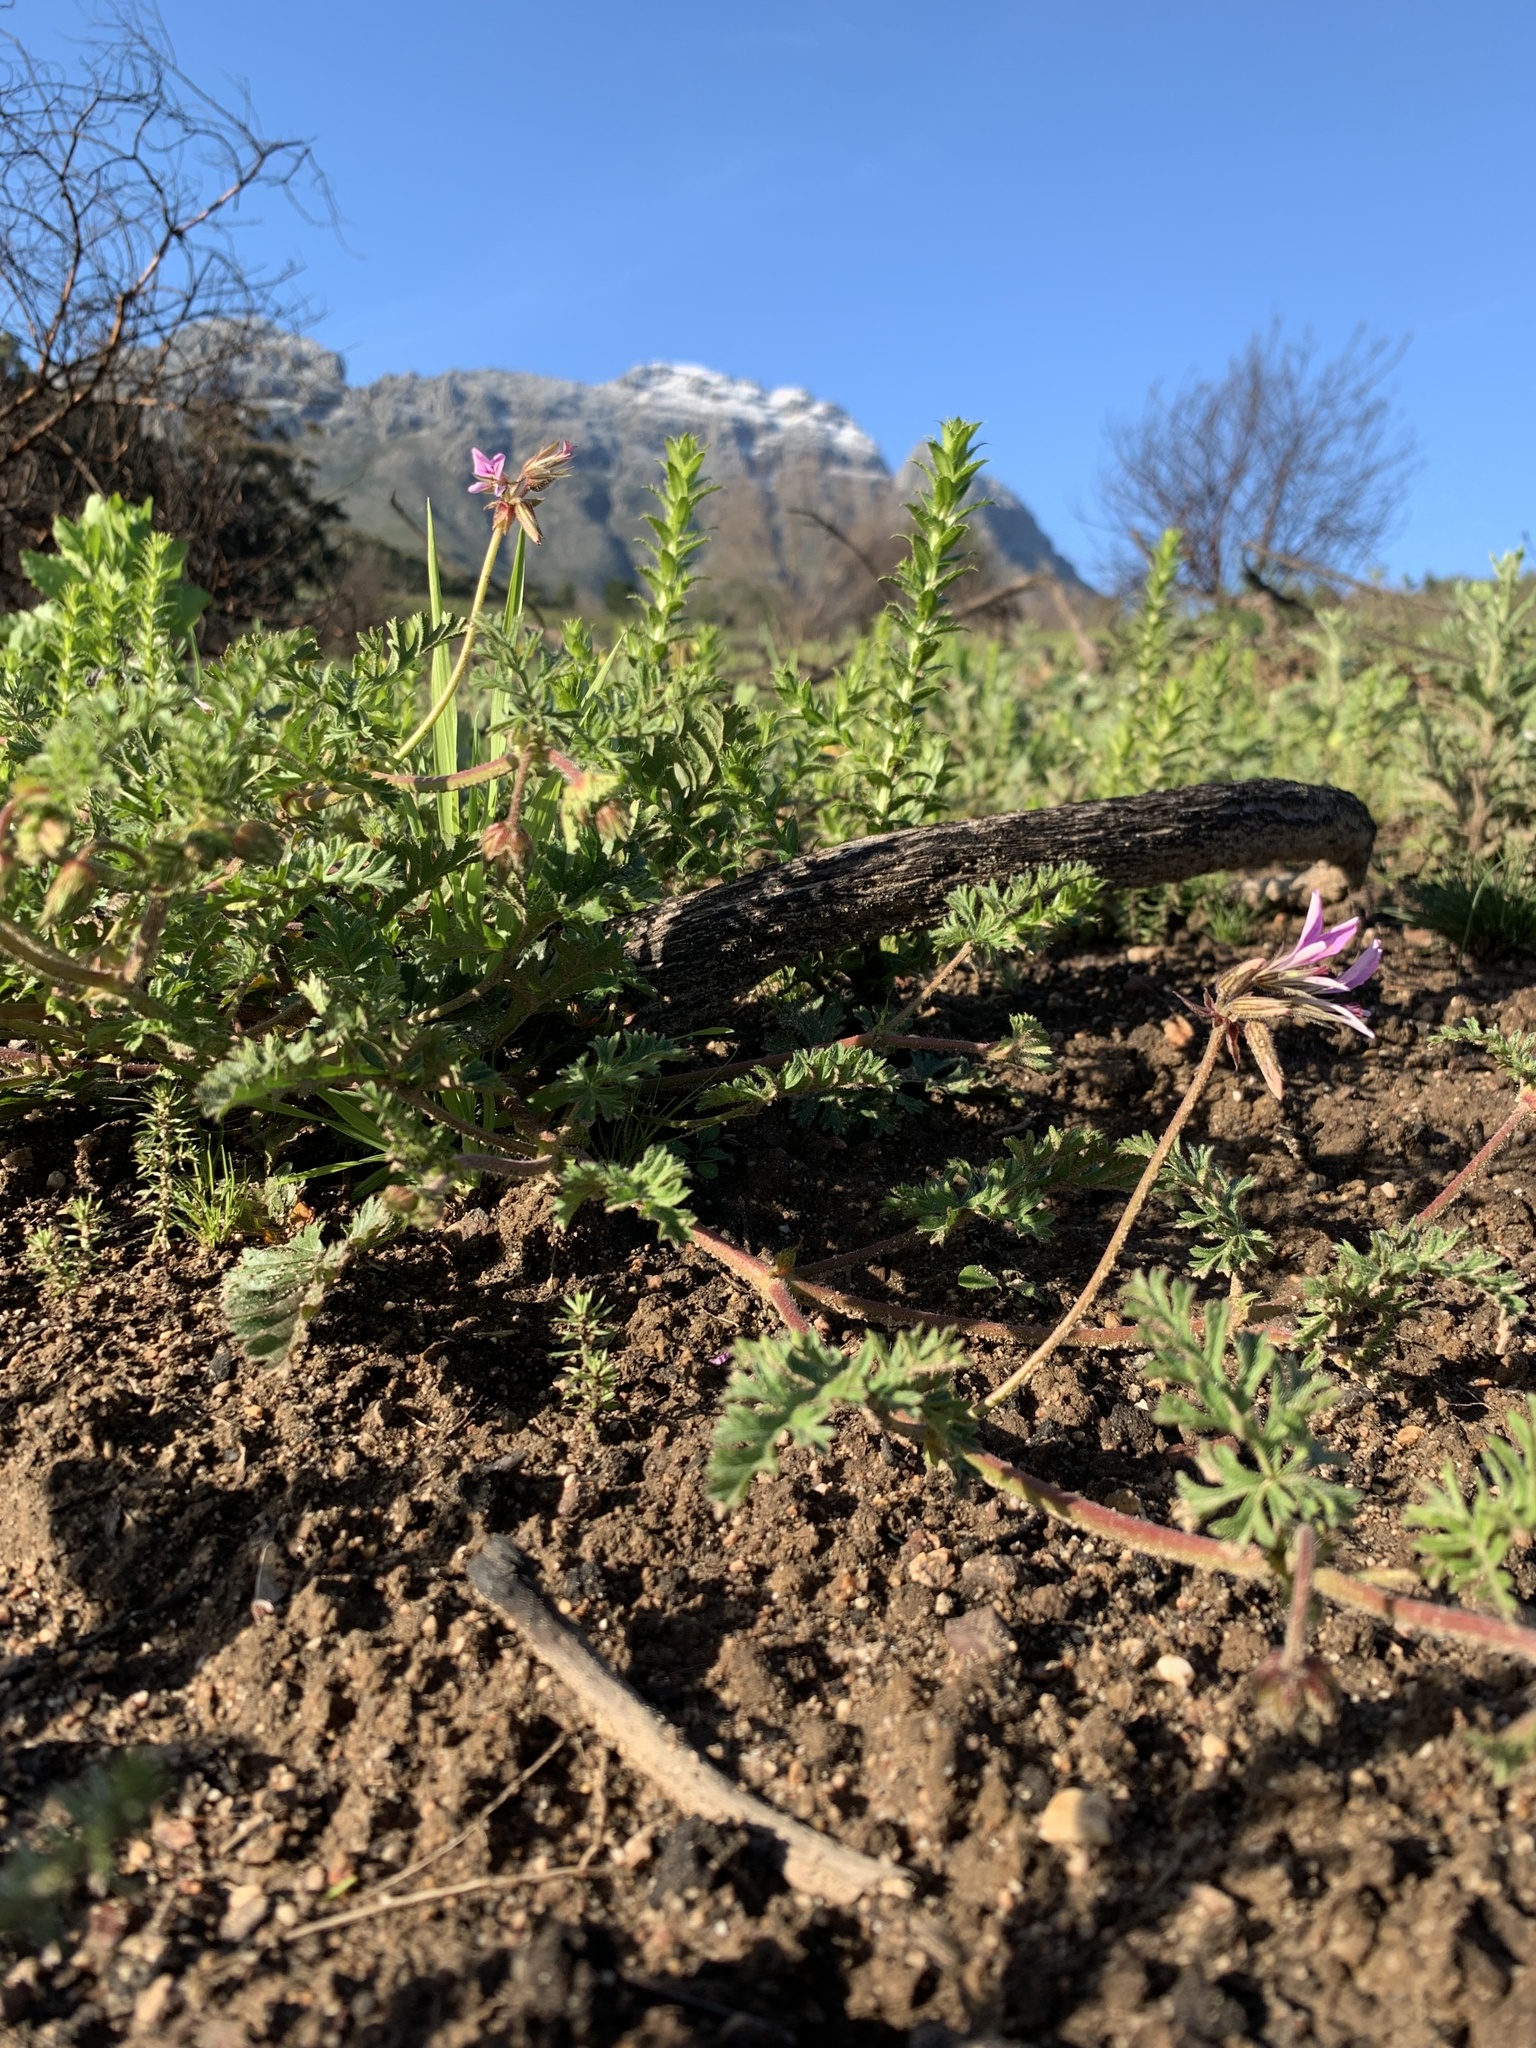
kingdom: Plantae
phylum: Tracheophyta
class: Magnoliopsida
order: Geraniales
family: Geraniaceae
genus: Pelargonium
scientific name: Pelargonium myrrhifolium
